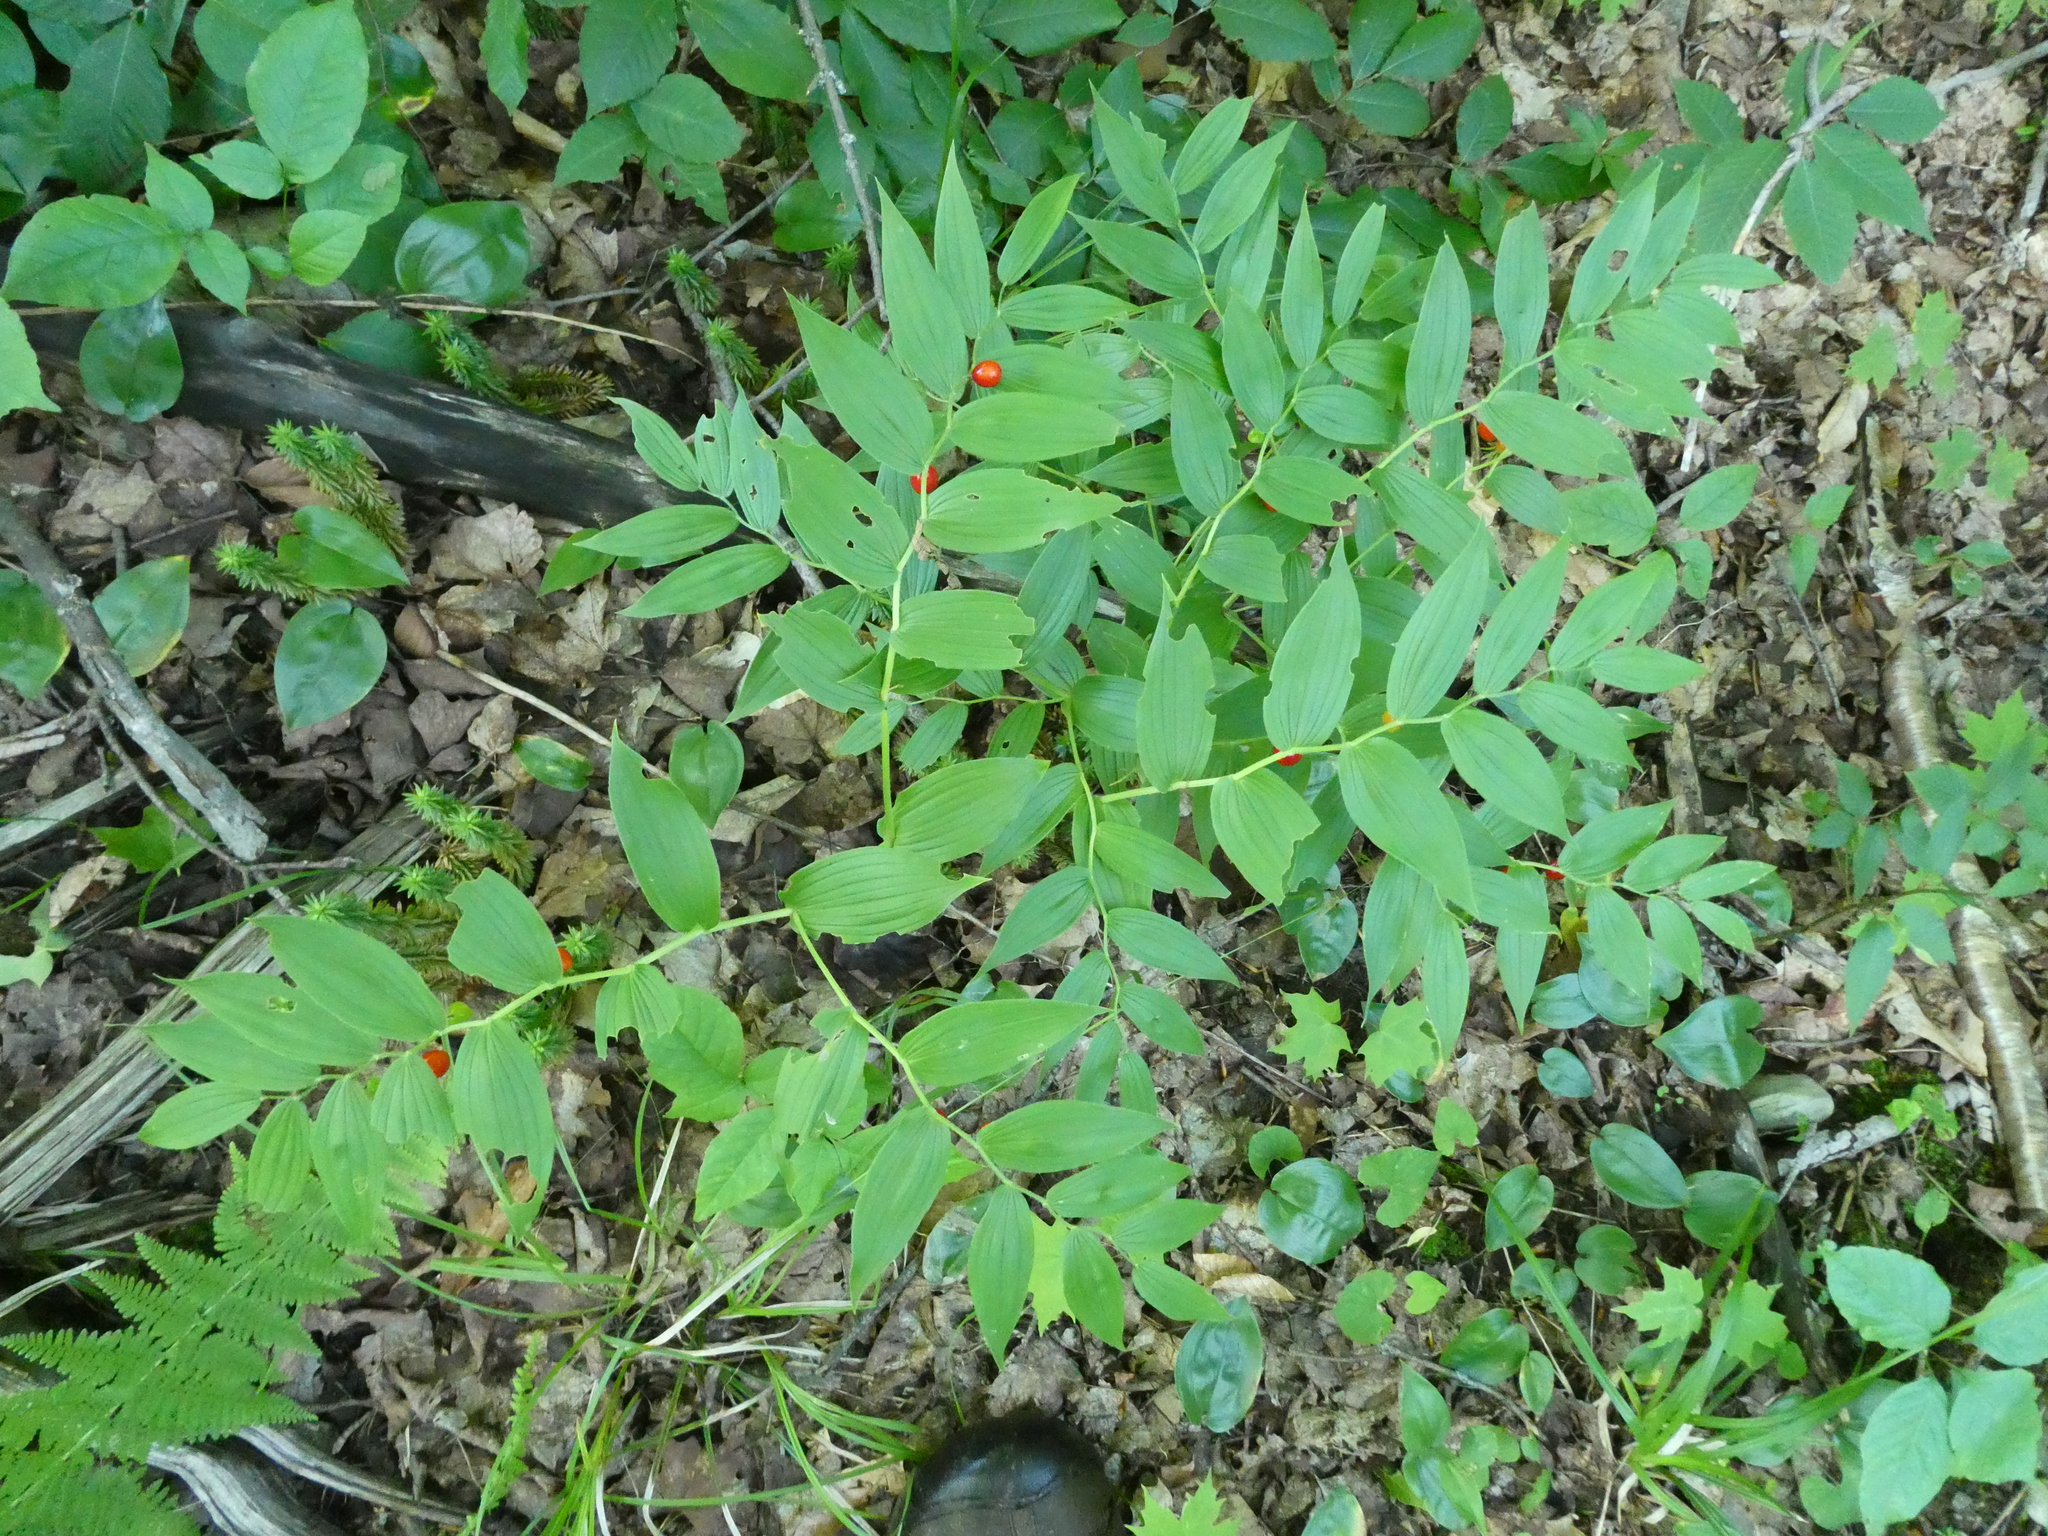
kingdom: Plantae
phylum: Tracheophyta
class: Liliopsida
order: Liliales
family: Liliaceae
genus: Streptopus
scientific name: Streptopus lanceolatus
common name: Rose mandarin
